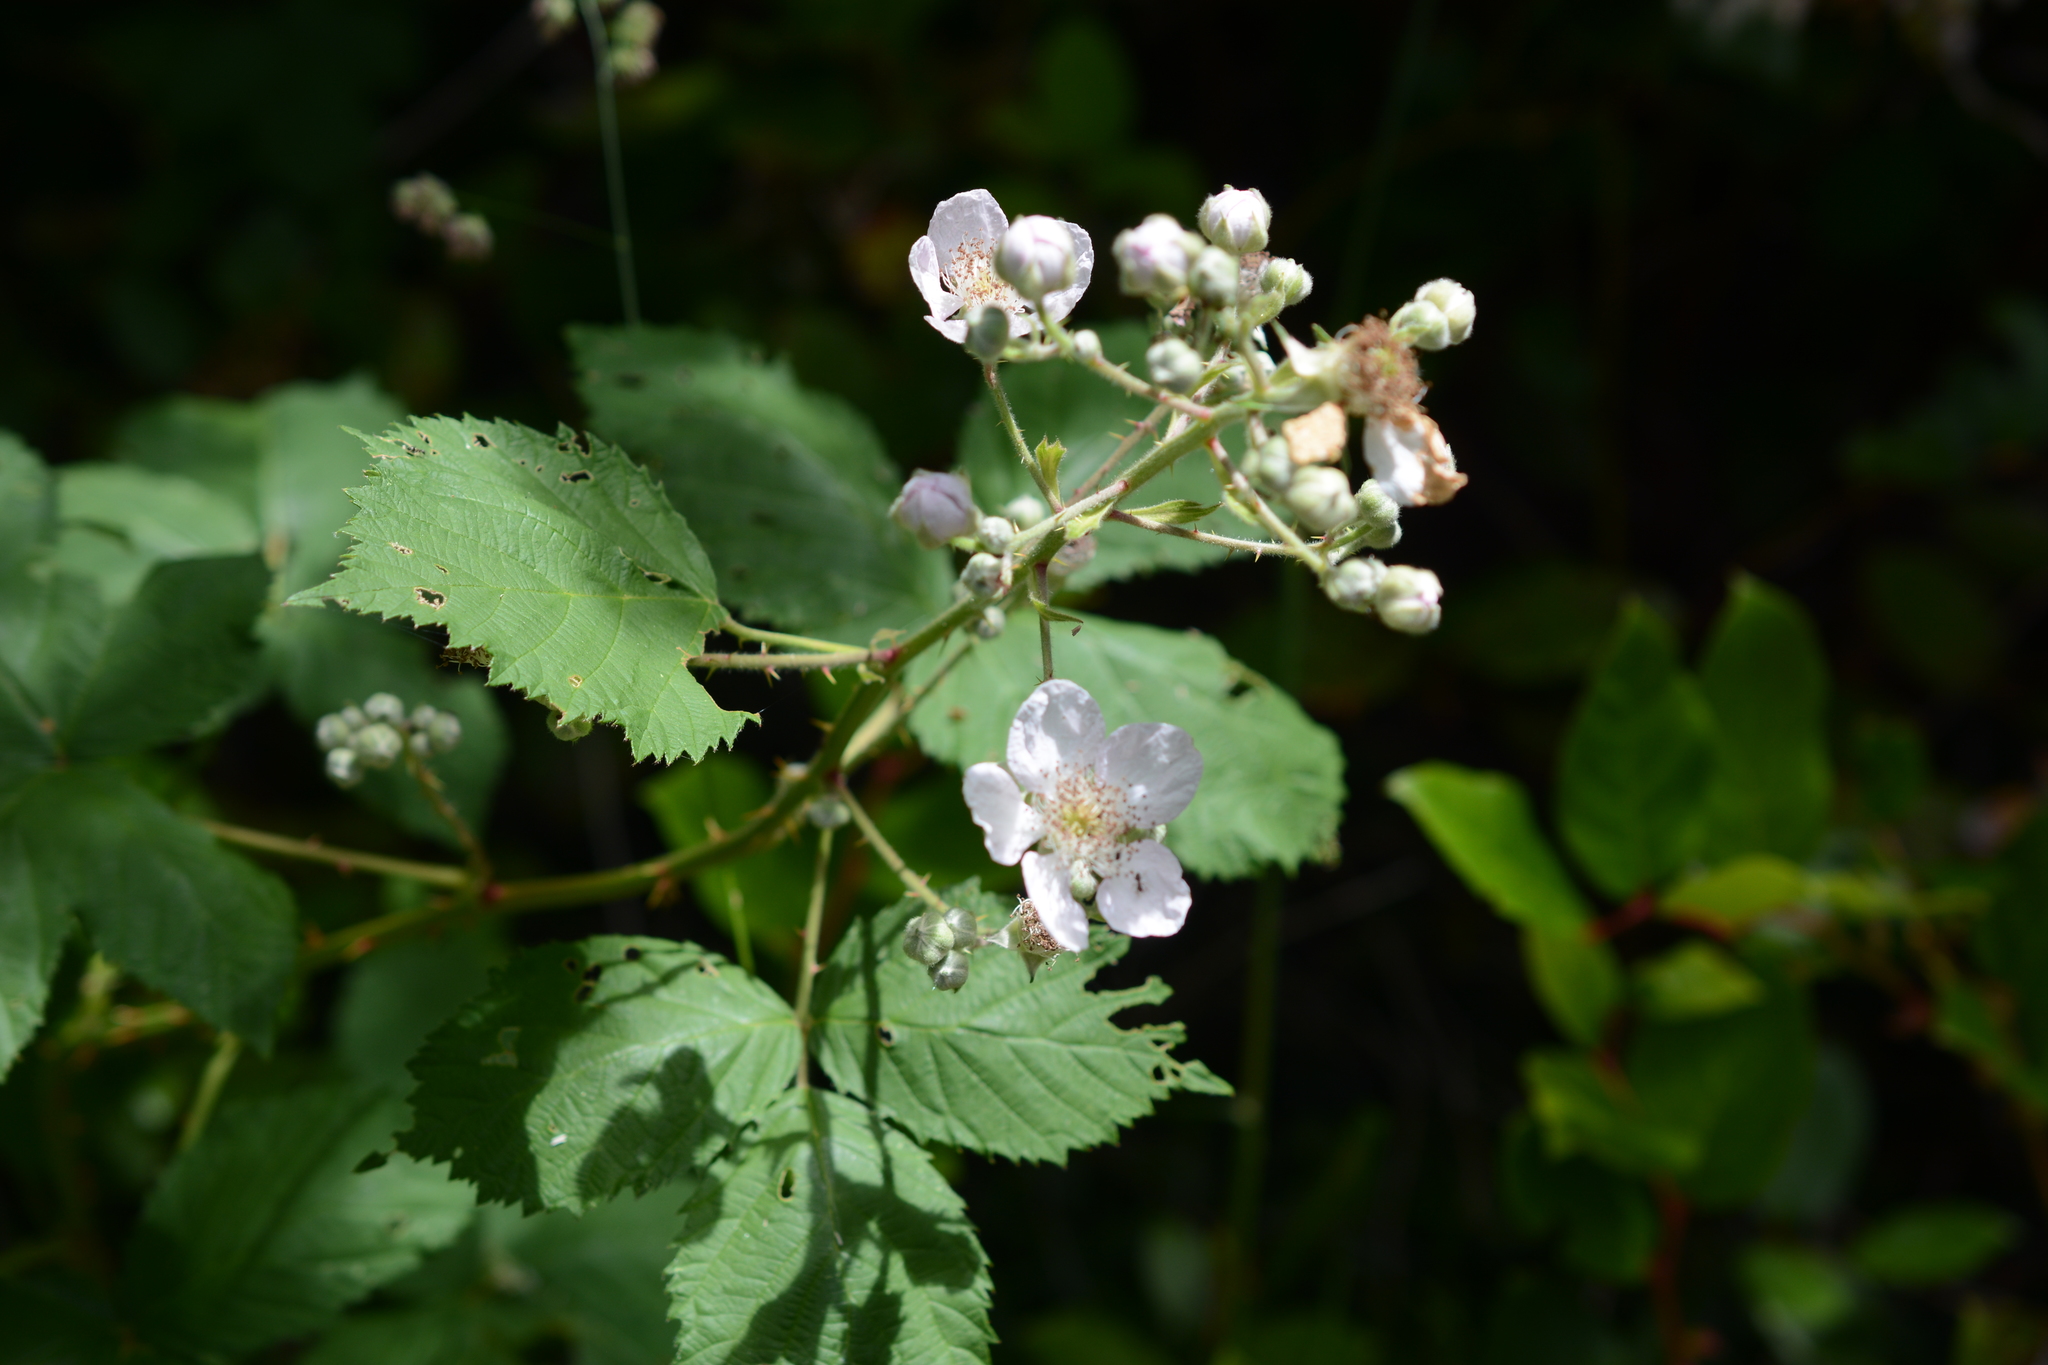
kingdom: Plantae
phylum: Tracheophyta
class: Magnoliopsida
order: Rosales
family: Rosaceae
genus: Rubus
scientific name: Rubus armeniacus
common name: Himalayan blackberry
